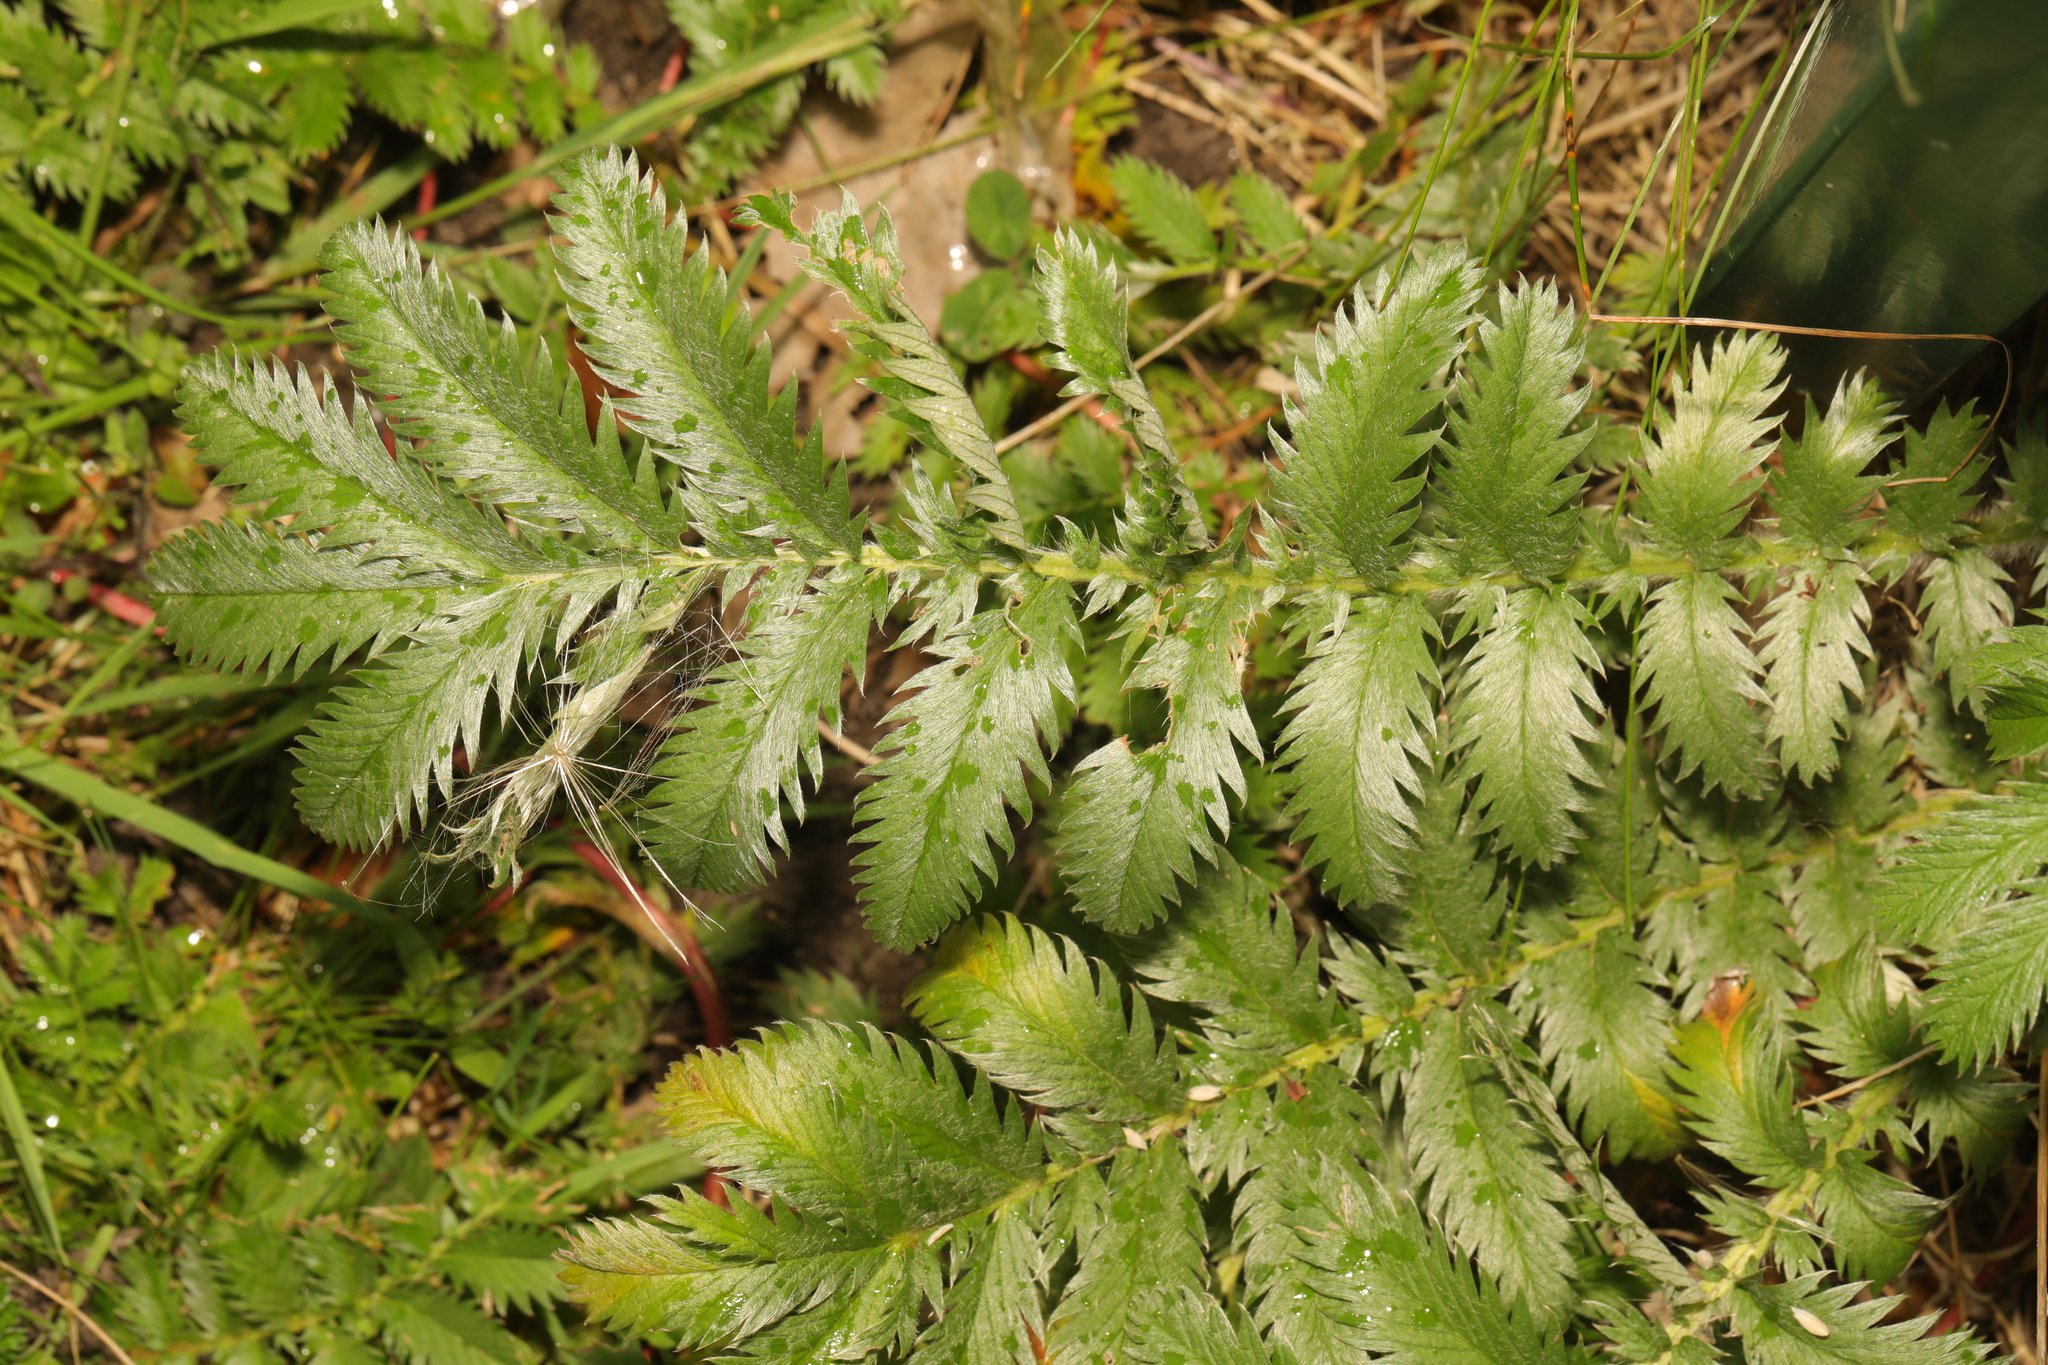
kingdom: Plantae
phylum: Tracheophyta
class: Magnoliopsida
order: Rosales
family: Rosaceae
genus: Argentina
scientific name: Argentina anserina
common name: Common silverweed
